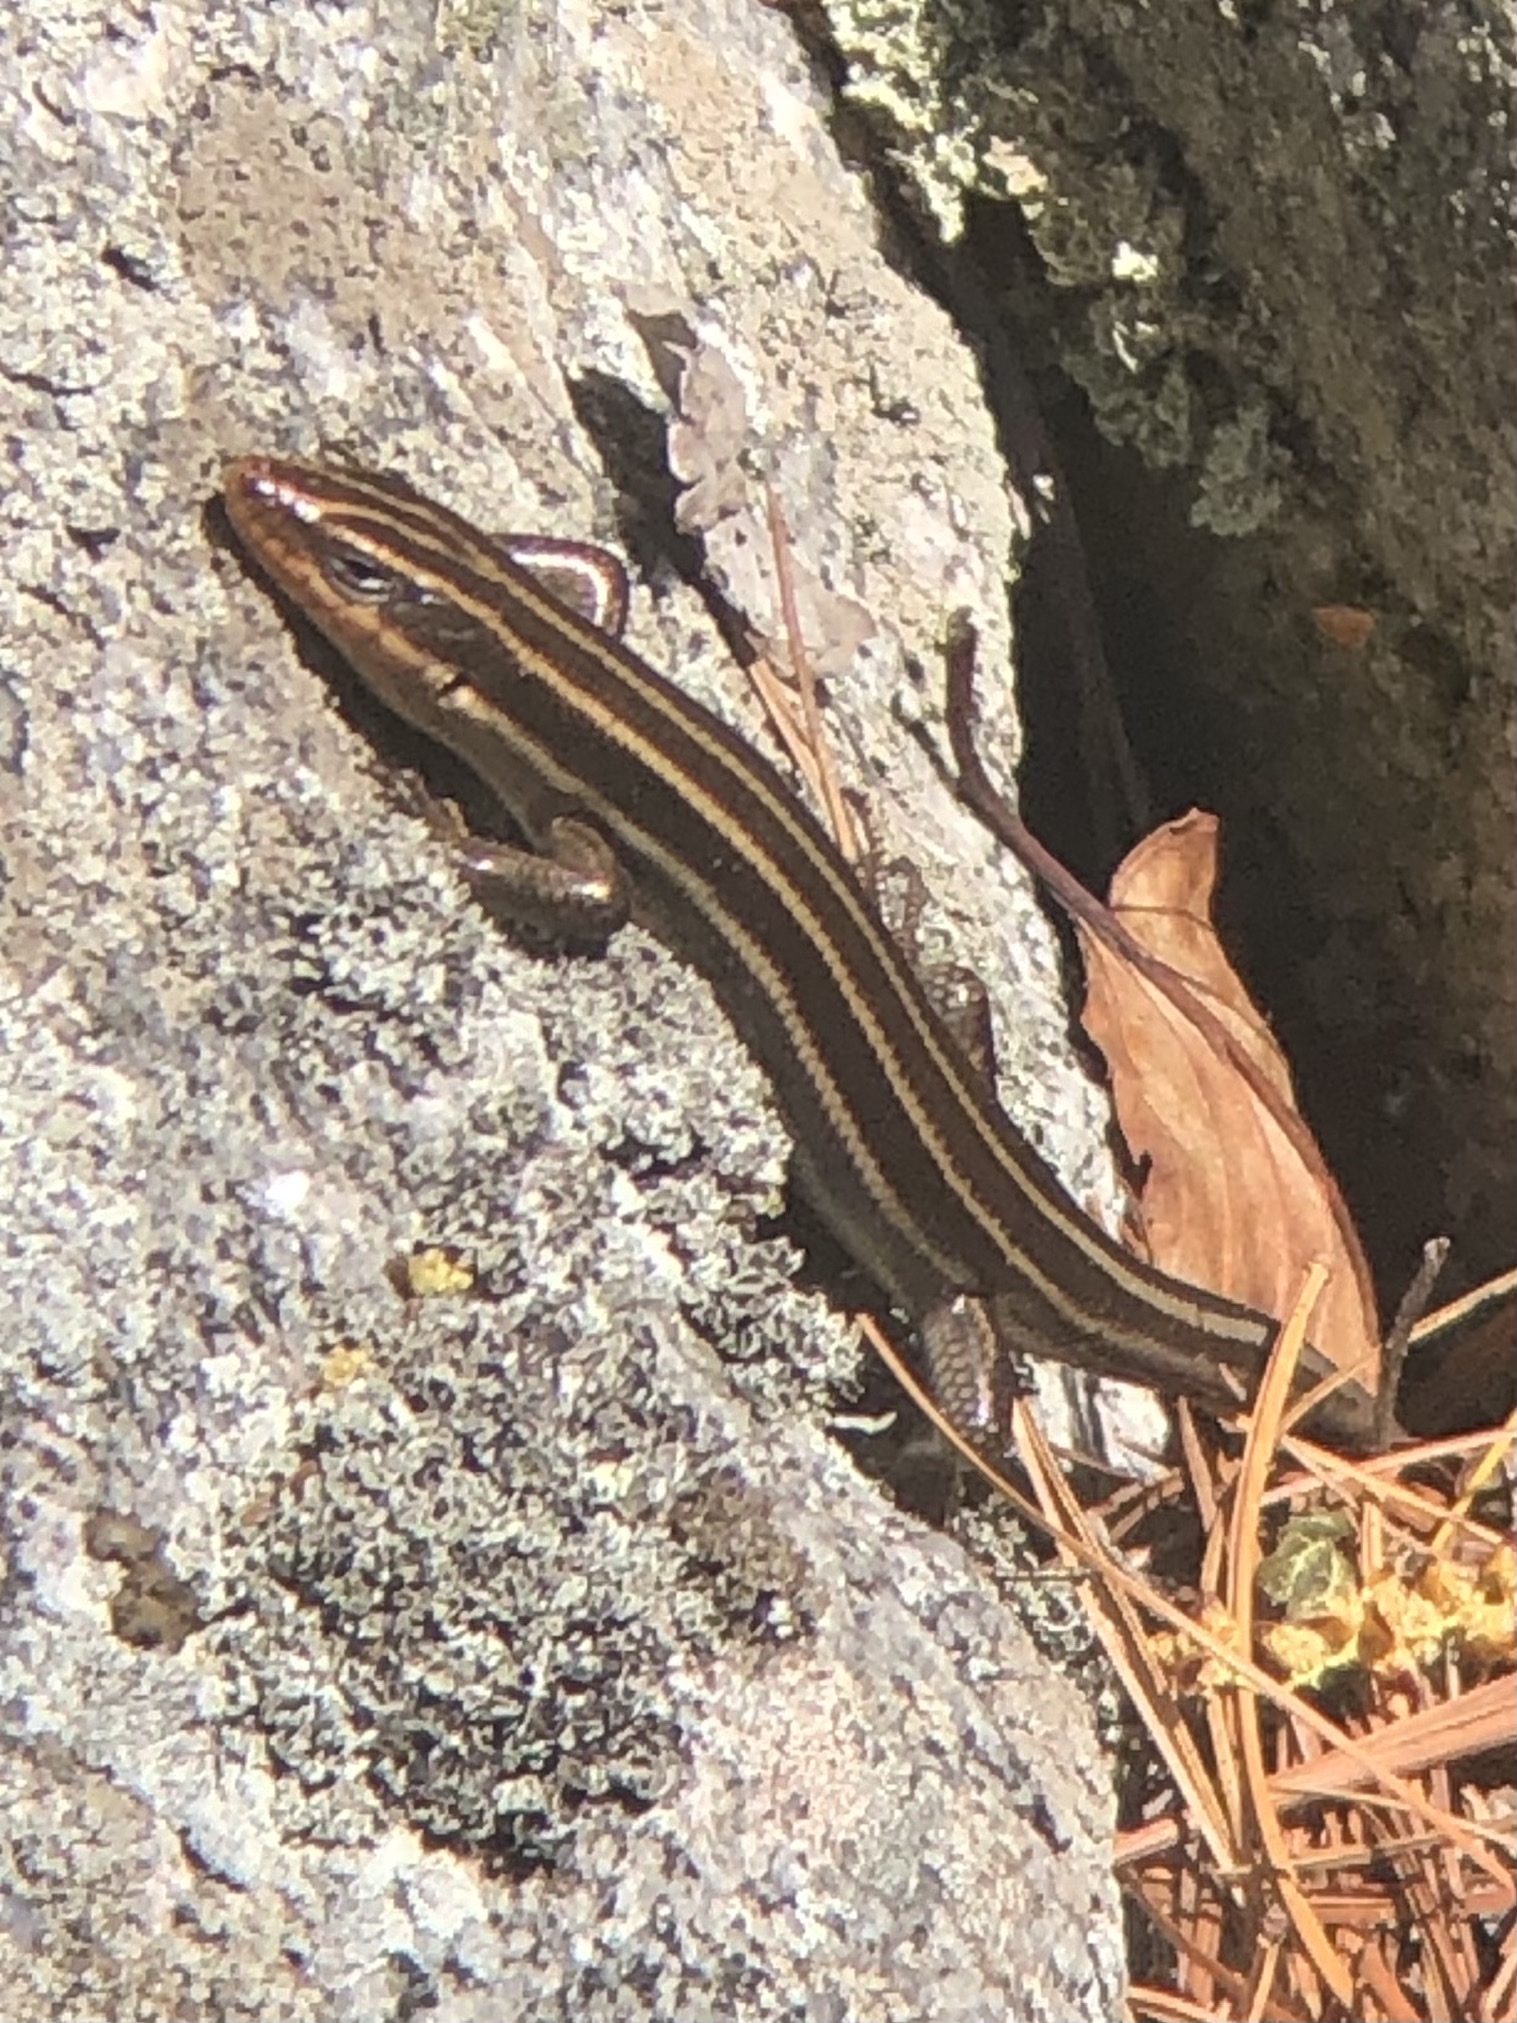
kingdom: Animalia
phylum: Chordata
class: Squamata
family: Scincidae
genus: Plestiodon
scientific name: Plestiodon fasciatus
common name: Five-lined skink
